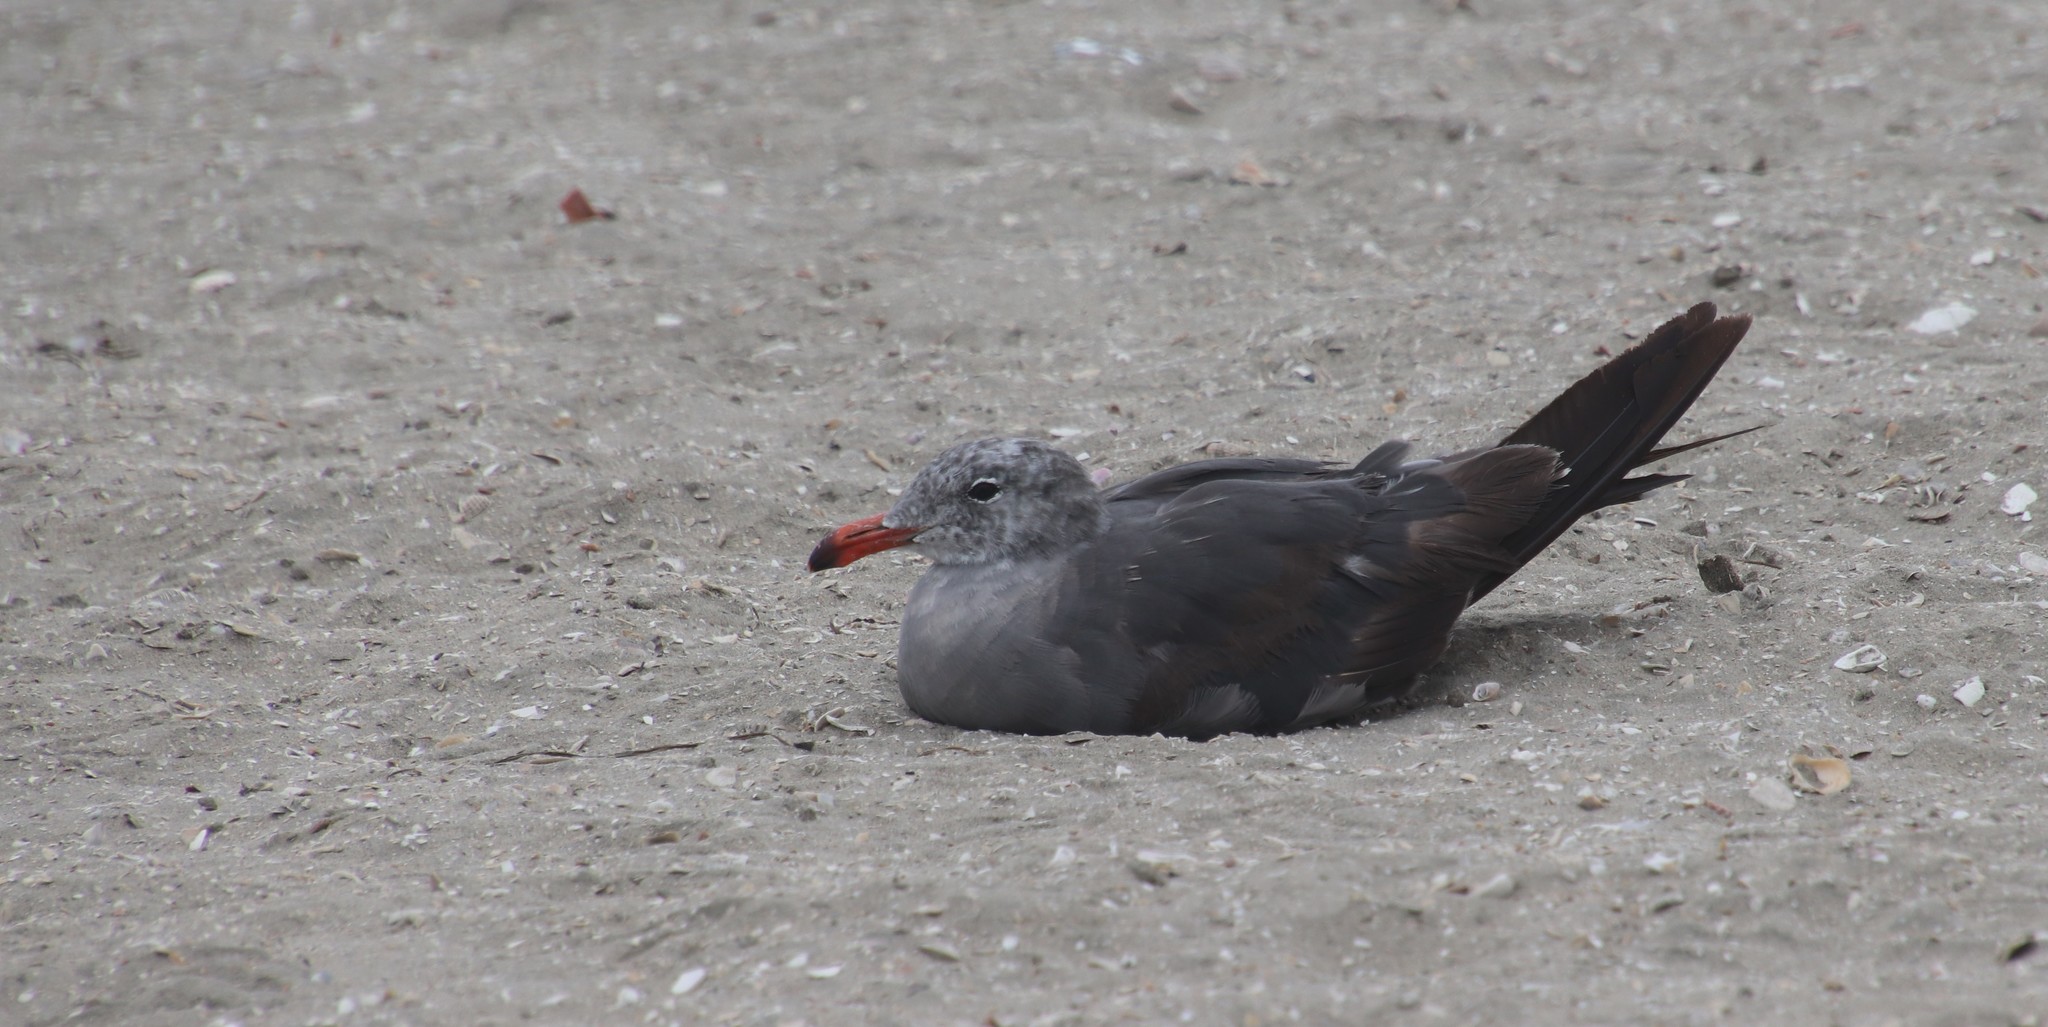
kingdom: Animalia
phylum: Chordata
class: Aves
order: Charadriiformes
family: Laridae
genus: Larus
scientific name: Larus heermanni
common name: Heermann's gull
